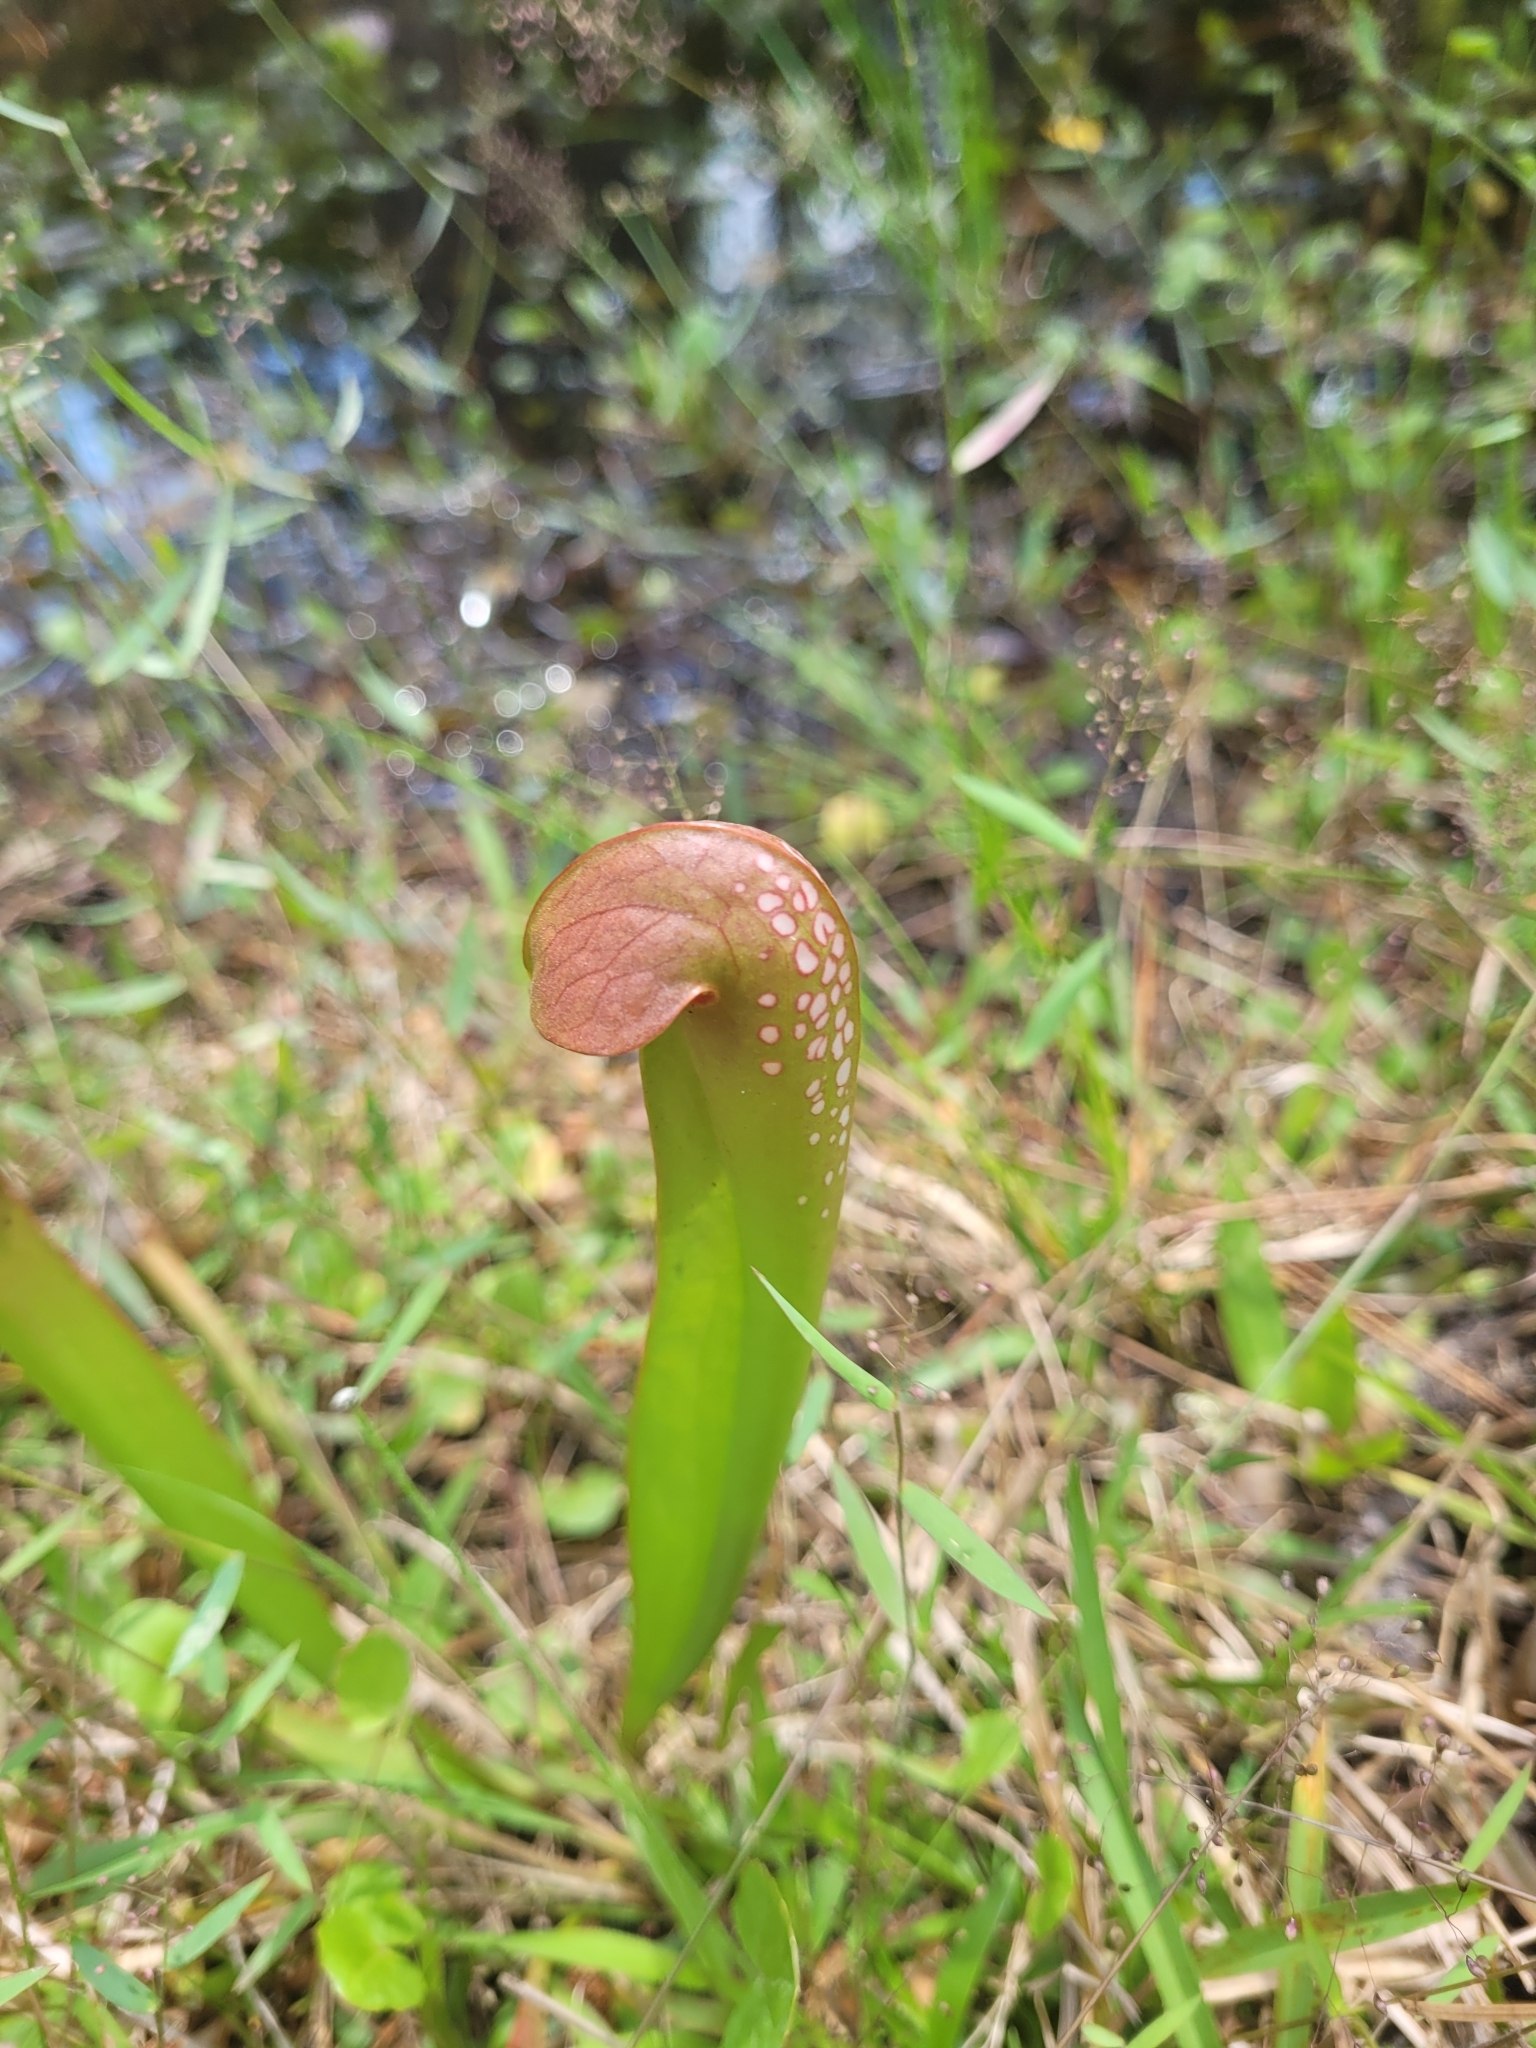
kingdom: Plantae
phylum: Tracheophyta
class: Magnoliopsida
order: Ericales
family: Sarraceniaceae
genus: Sarracenia
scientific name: Sarracenia minor
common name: Rainhat-trumpet
